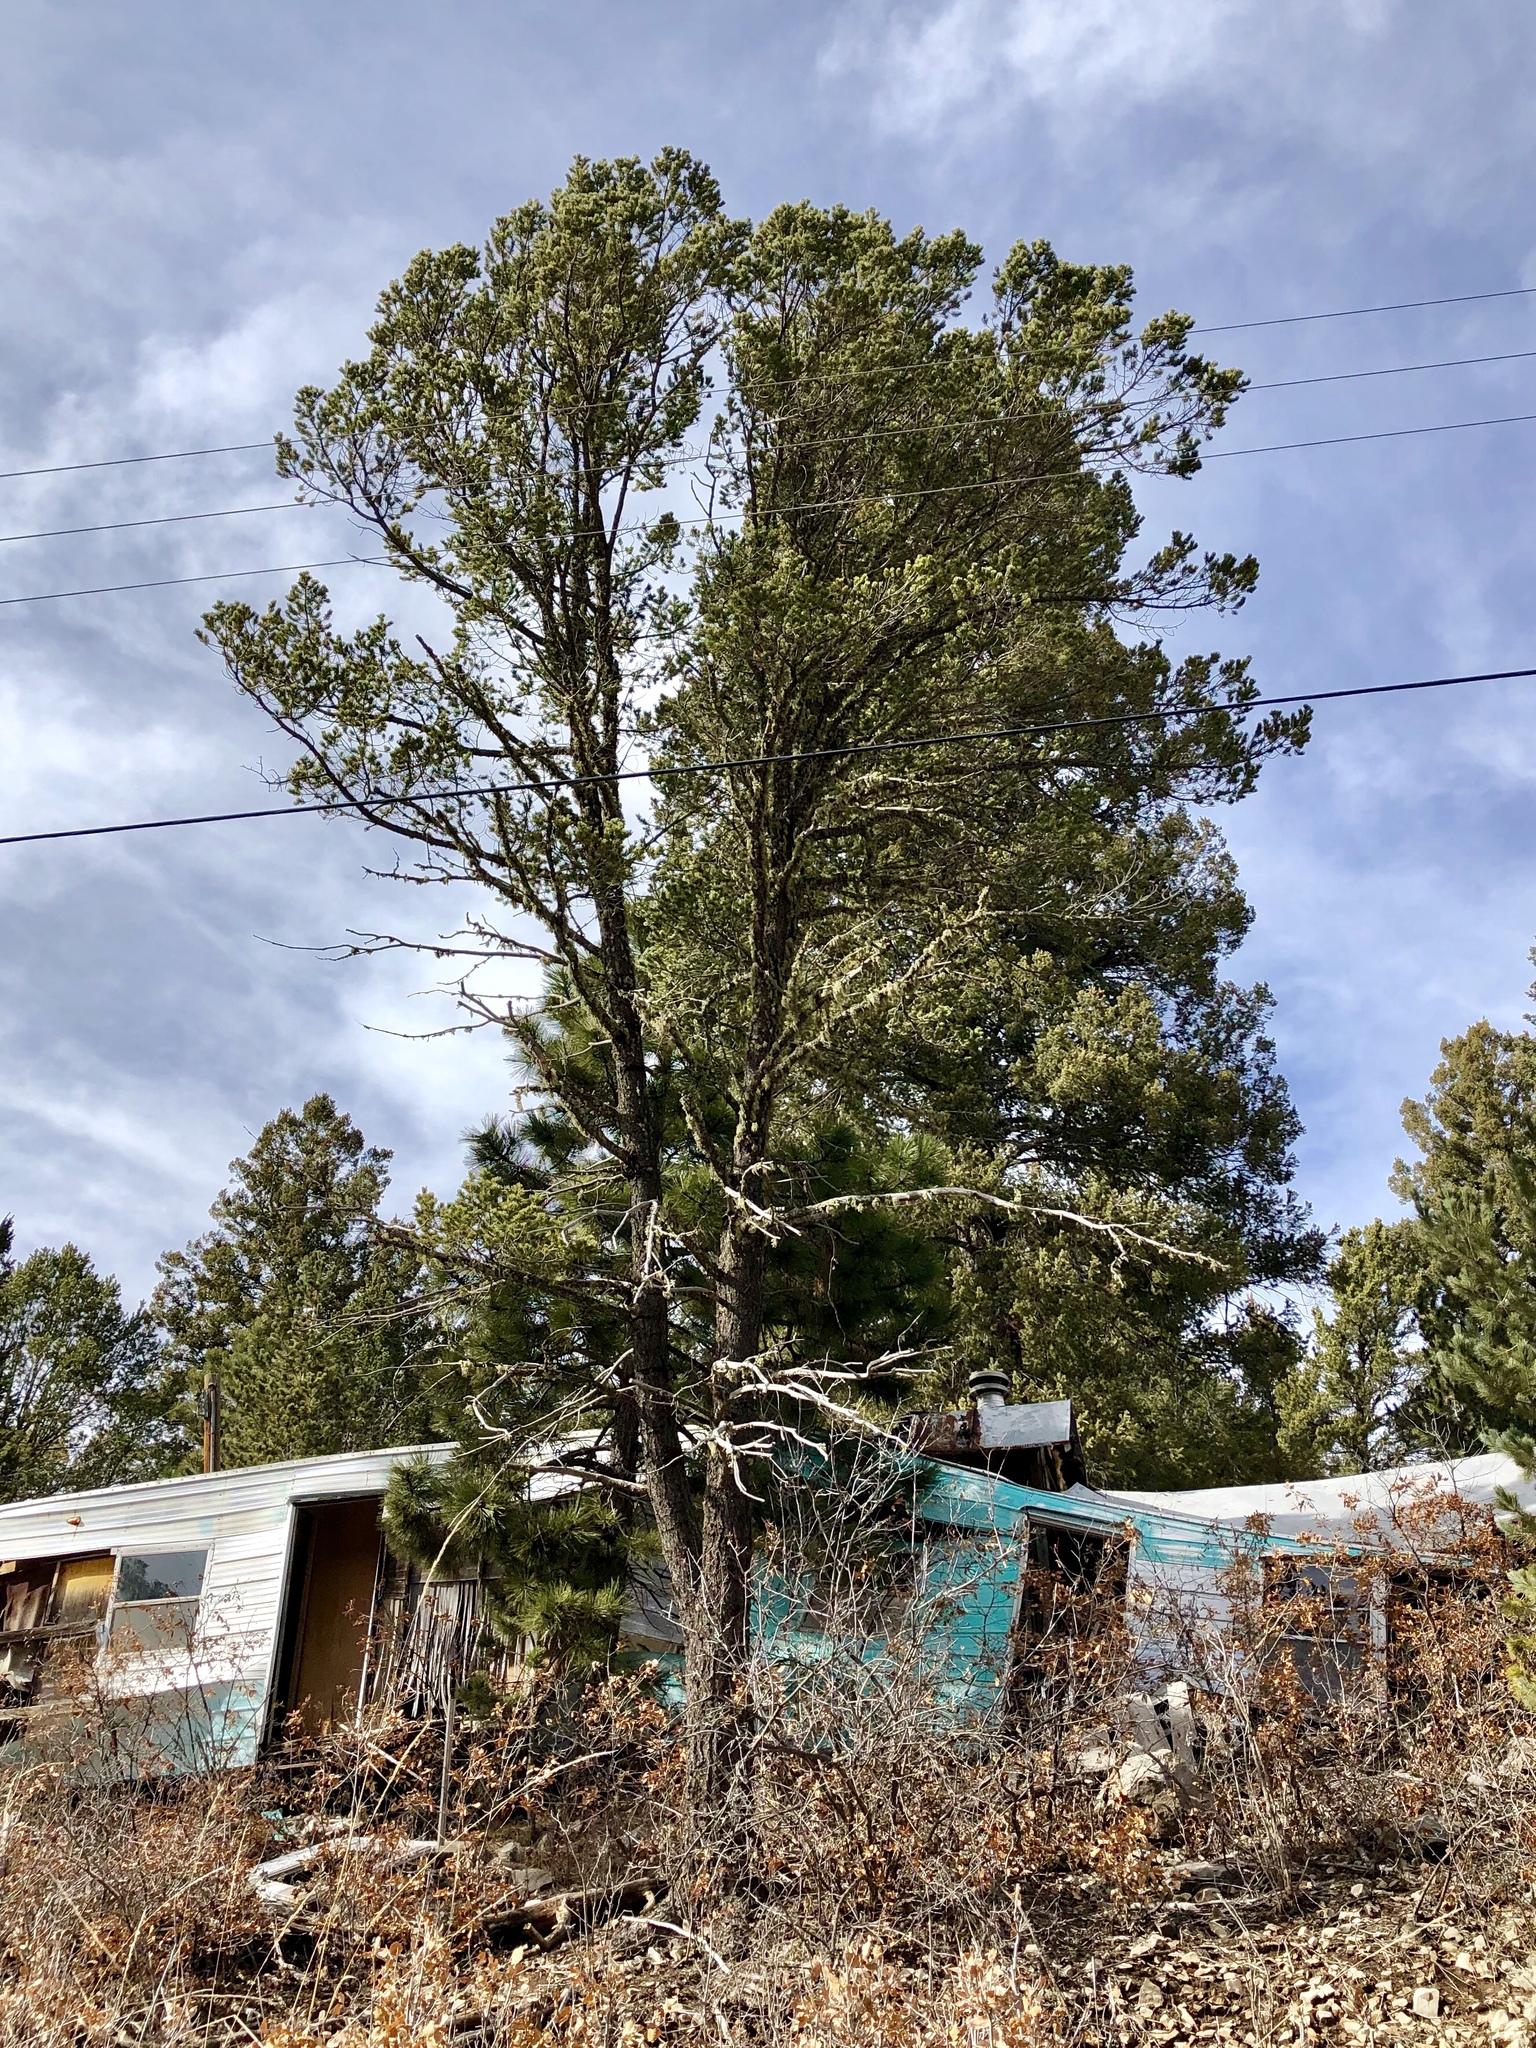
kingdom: Plantae
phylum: Tracheophyta
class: Pinopsida
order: Pinales
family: Pinaceae
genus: Pinus
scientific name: Pinus edulis
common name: Colorado pinyon
